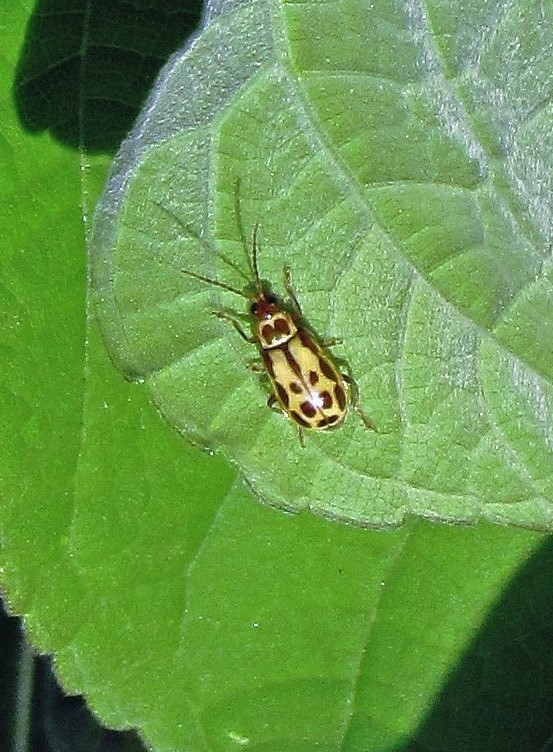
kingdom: Animalia
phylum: Arthropoda
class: Insecta
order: Coleoptera
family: Chrysomelidae
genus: Paranapiacaba
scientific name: Paranapiacaba significata
